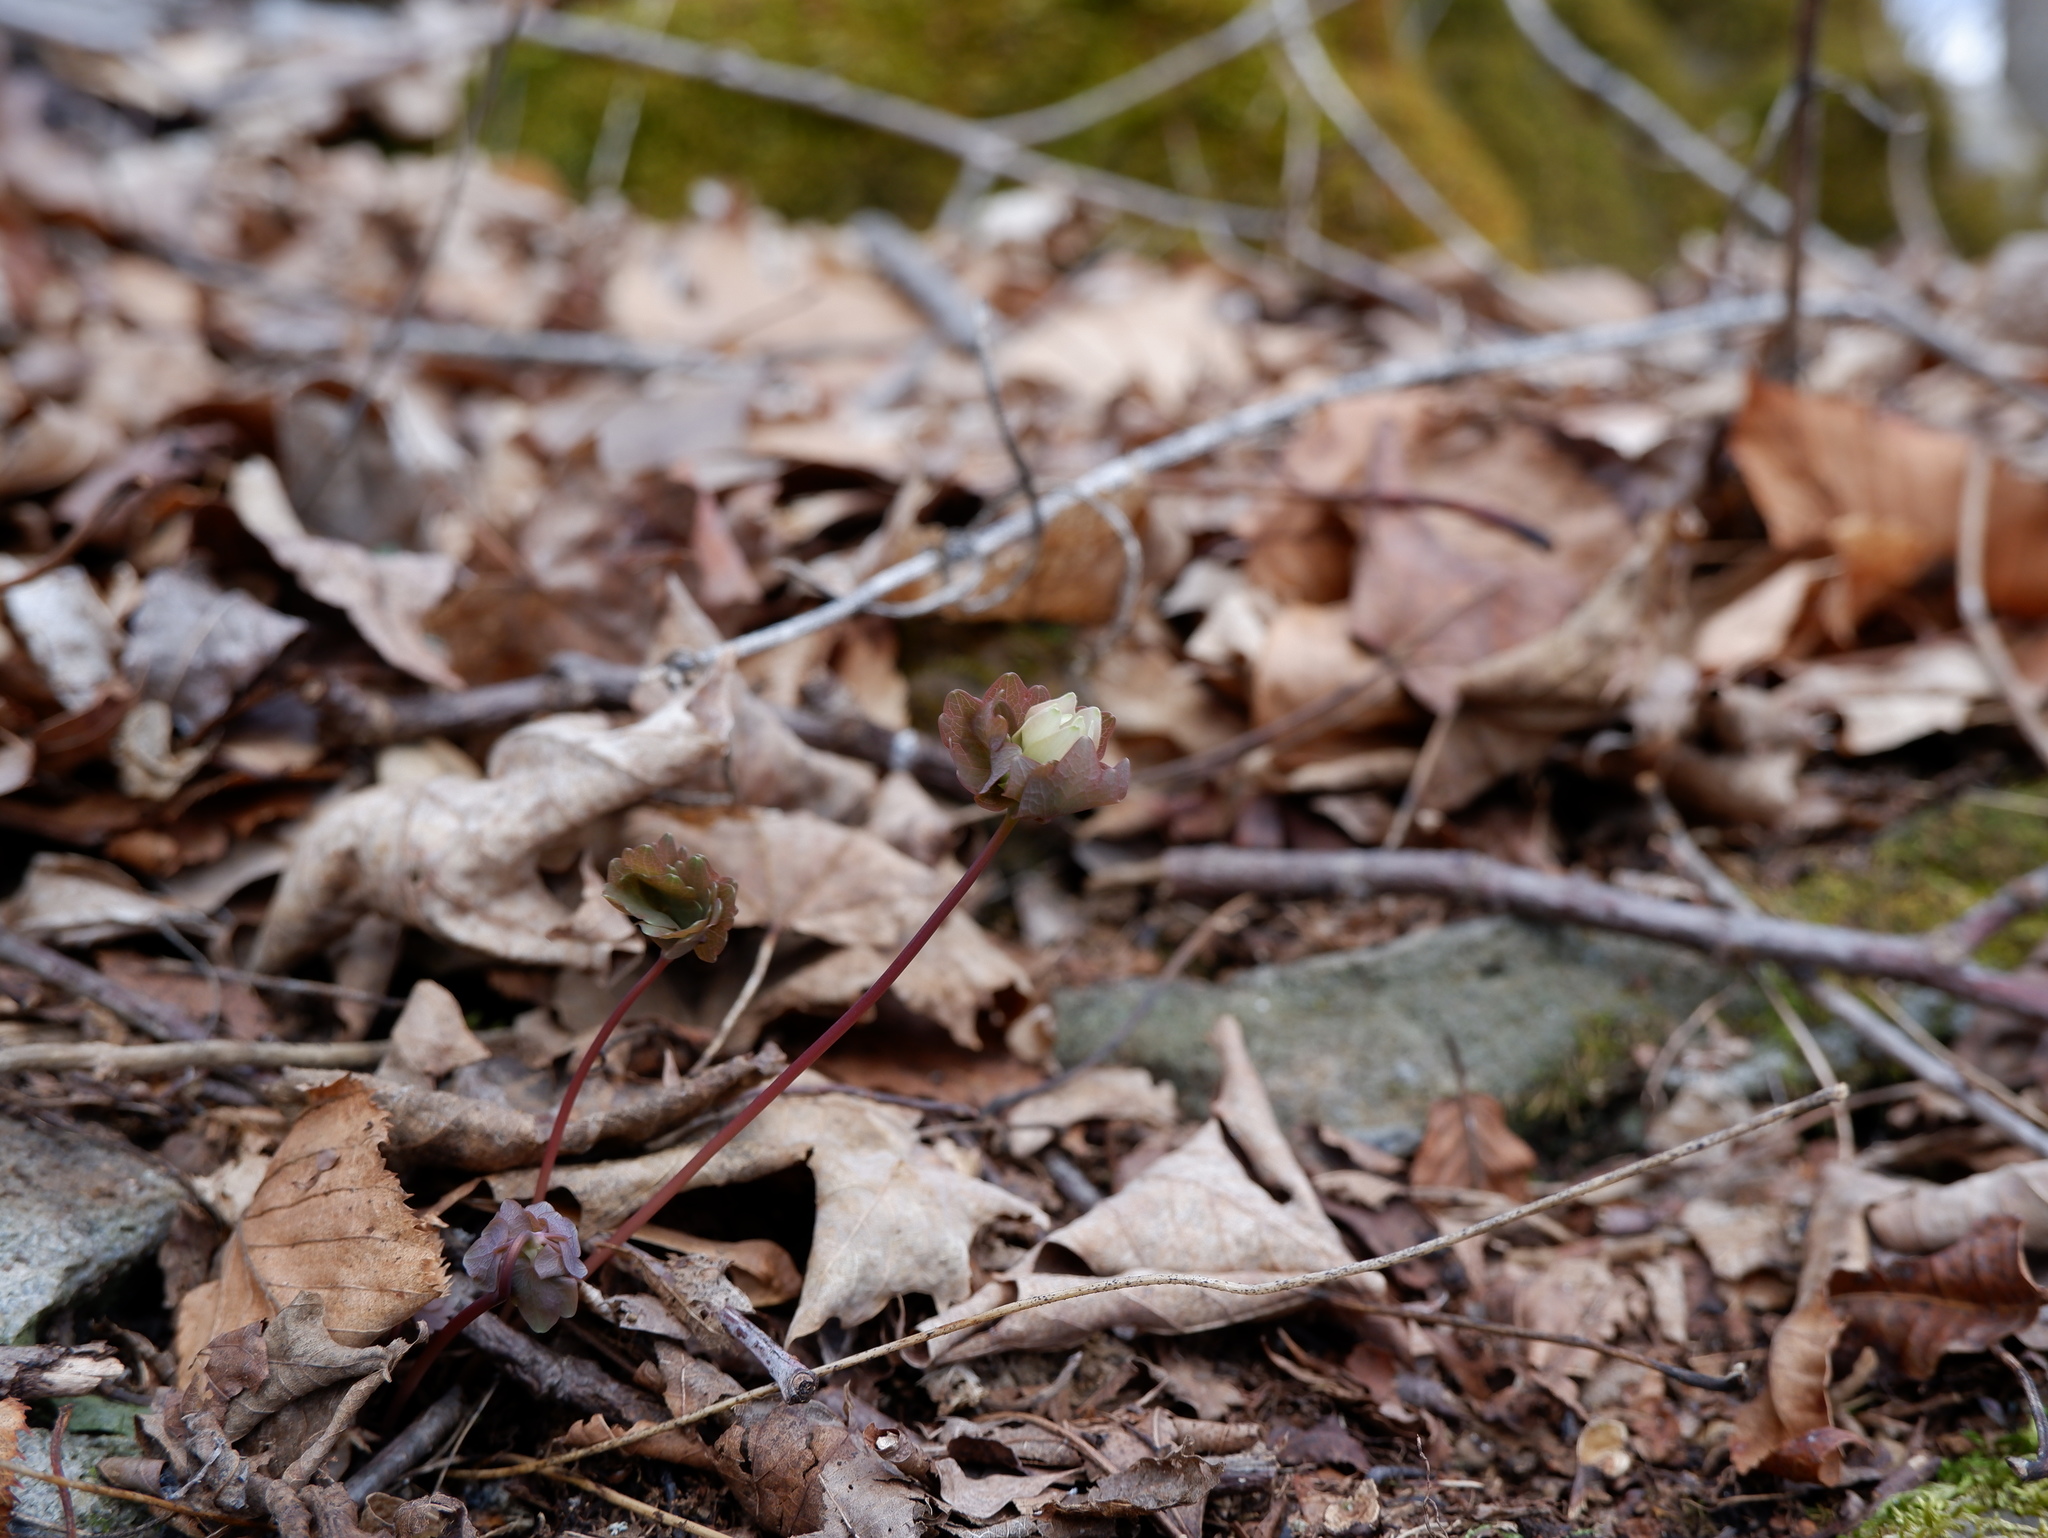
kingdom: Plantae
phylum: Tracheophyta
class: Magnoliopsida
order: Ranunculales
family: Ranunculaceae
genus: Thalictrum
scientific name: Thalictrum thalictroides
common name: Rue-anemone
